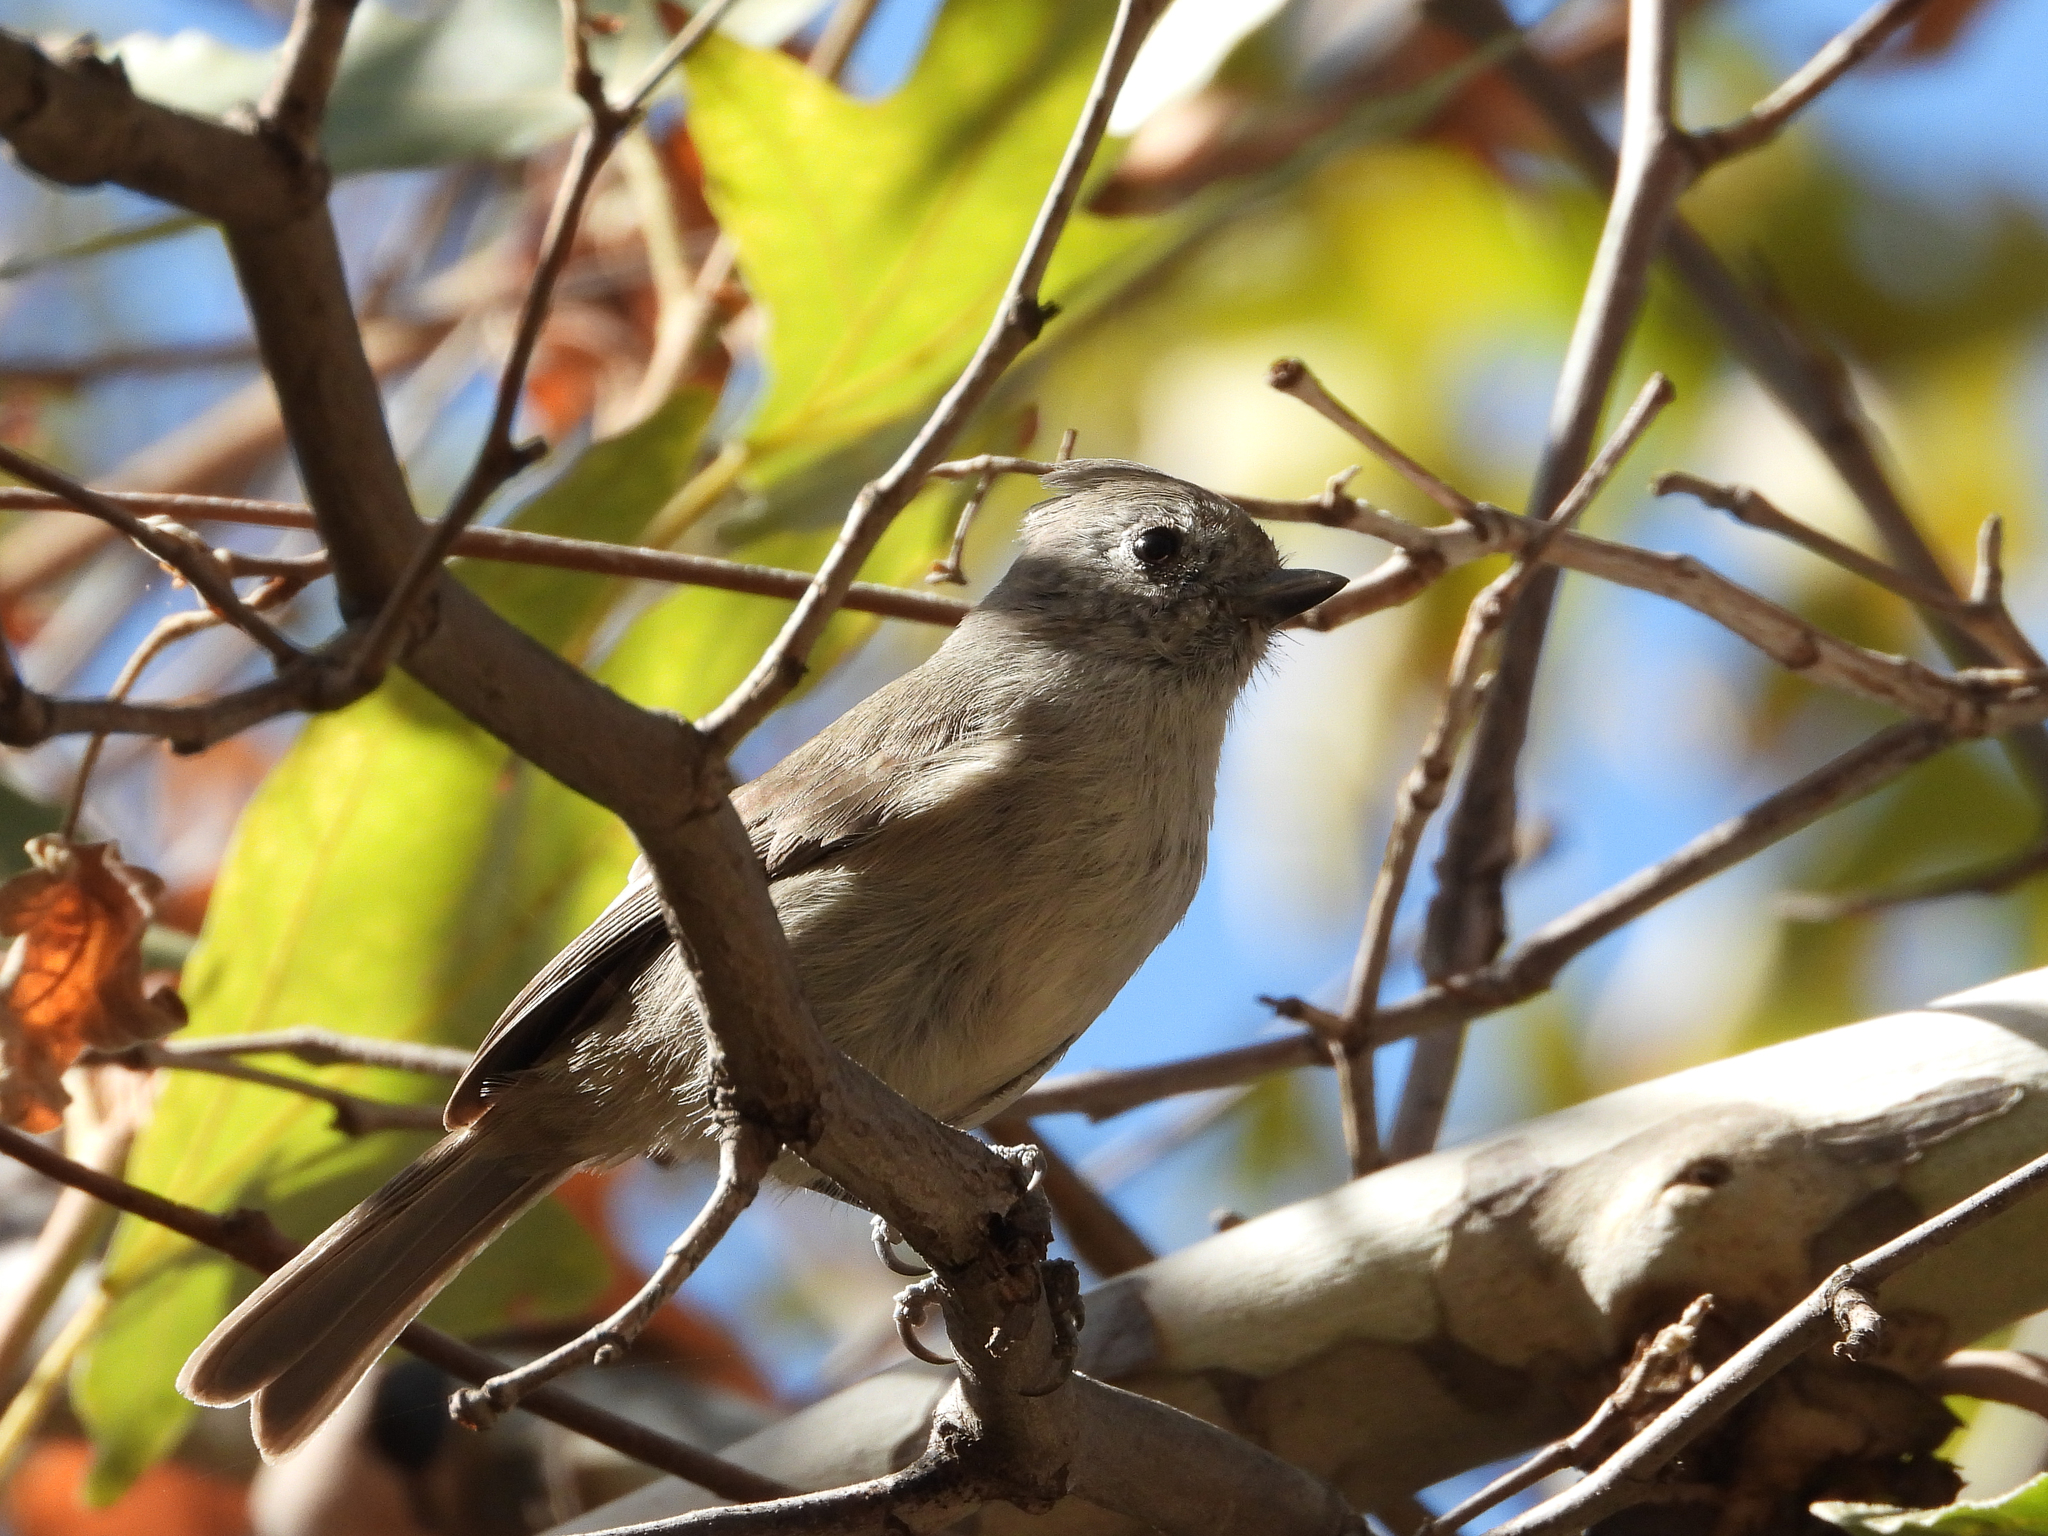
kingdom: Animalia
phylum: Chordata
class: Aves
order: Passeriformes
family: Paridae
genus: Baeolophus
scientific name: Baeolophus inornatus
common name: Oak titmouse
